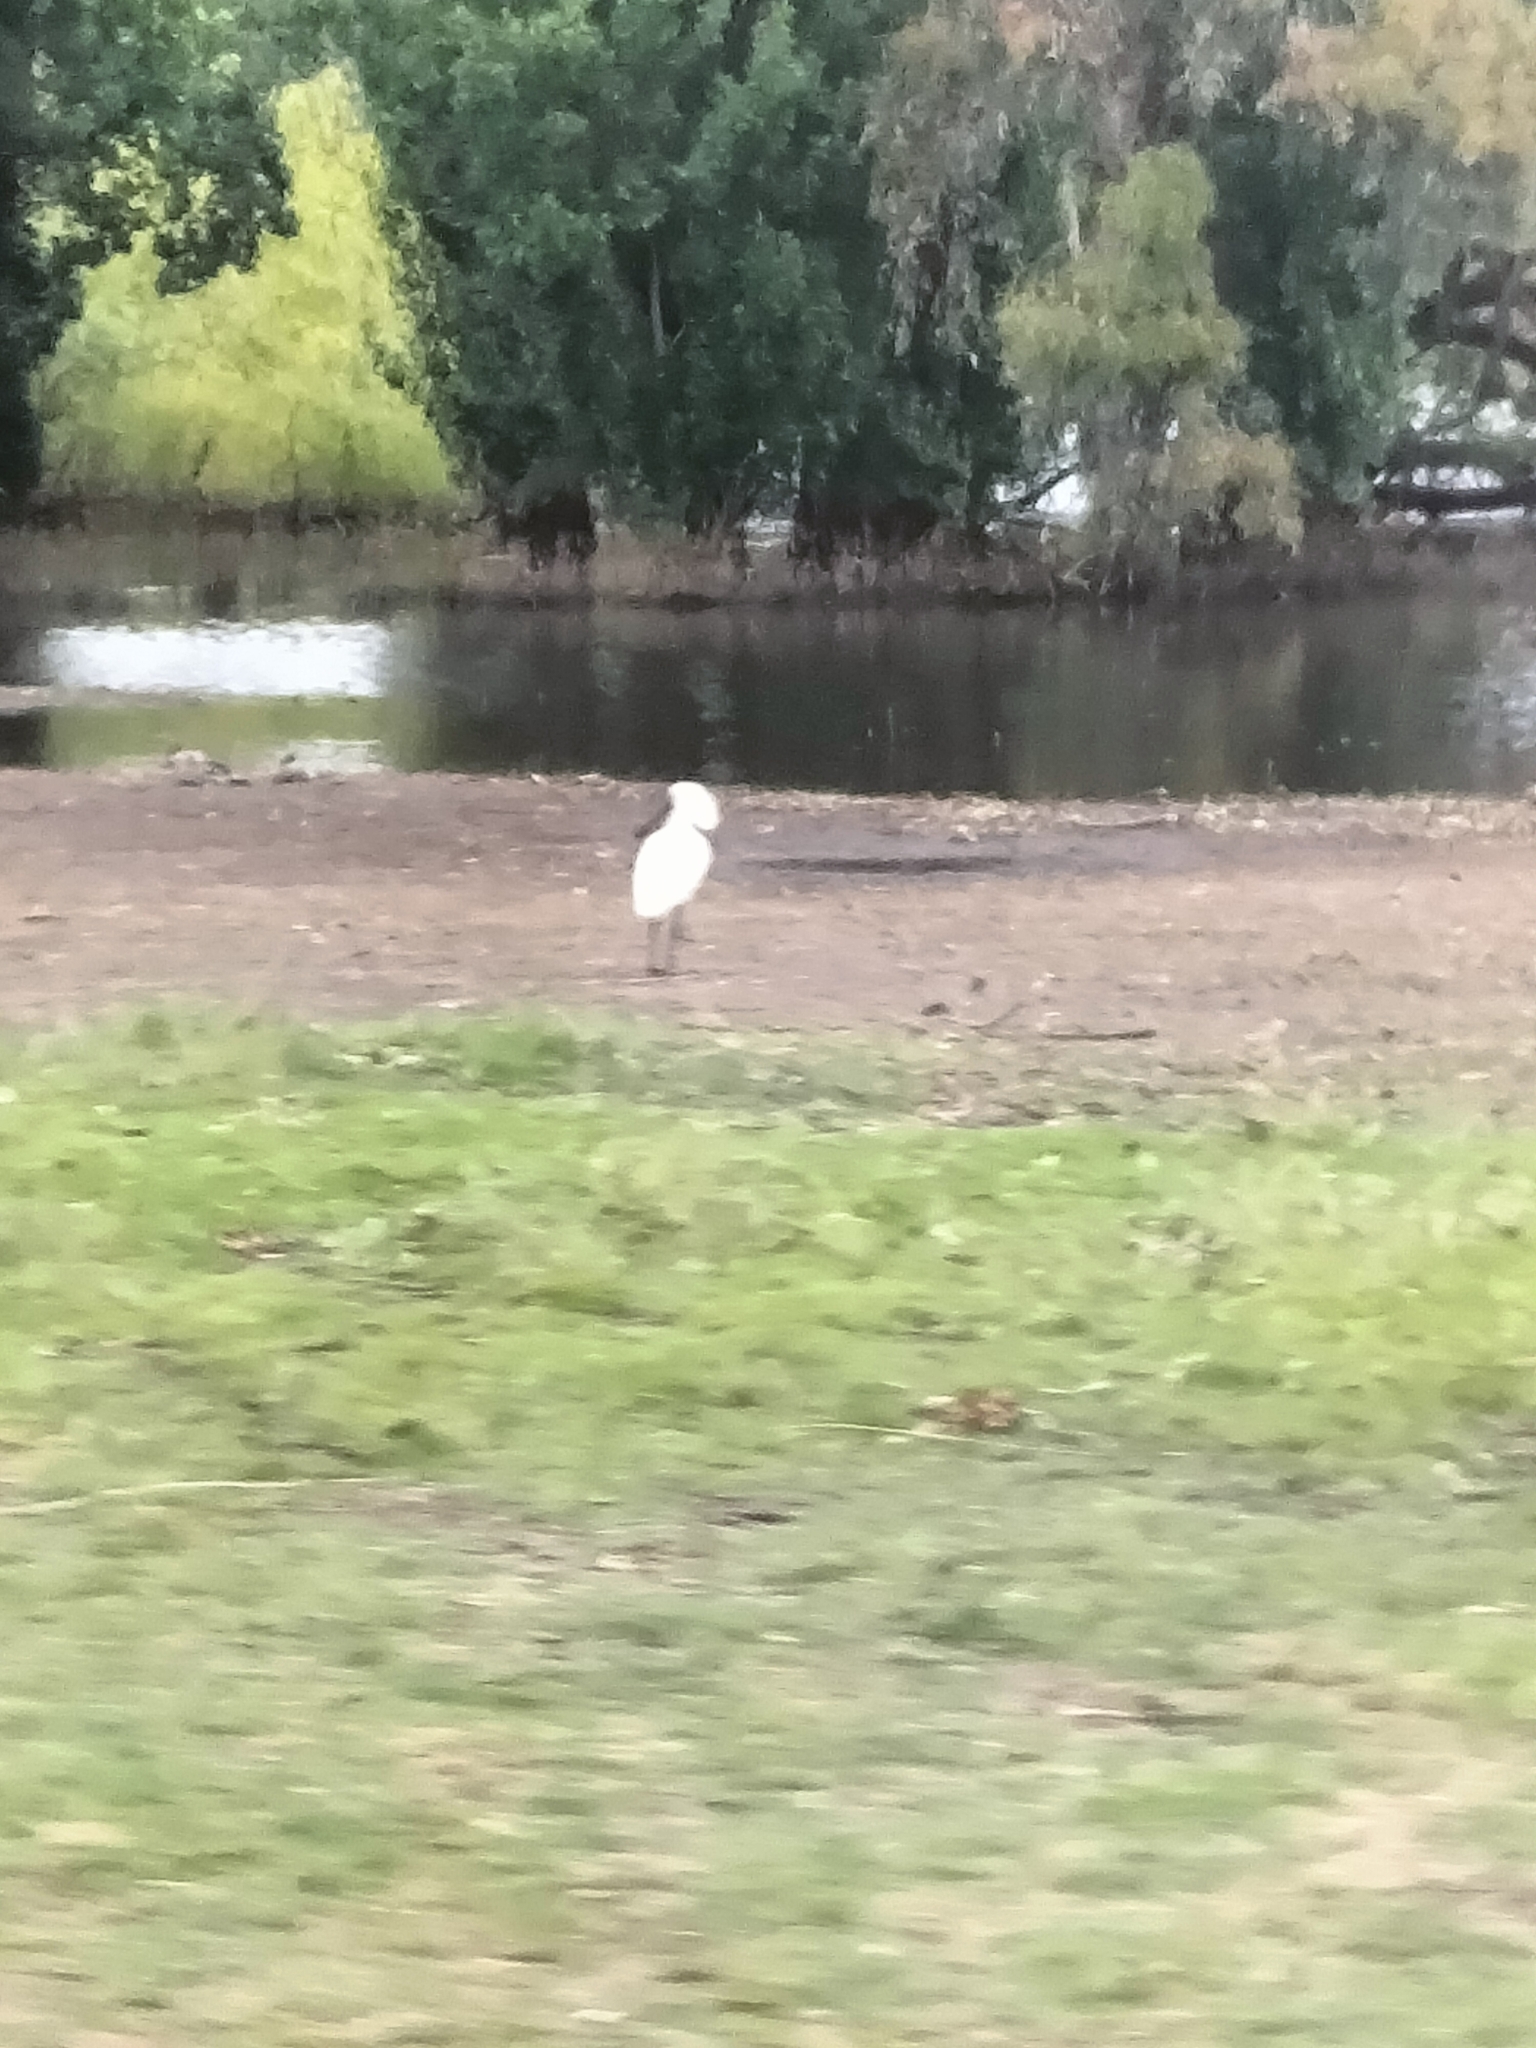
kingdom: Animalia
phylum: Chordata
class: Aves
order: Pelecaniformes
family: Threskiornithidae
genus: Platalea
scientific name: Platalea regia
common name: Royal spoonbill
